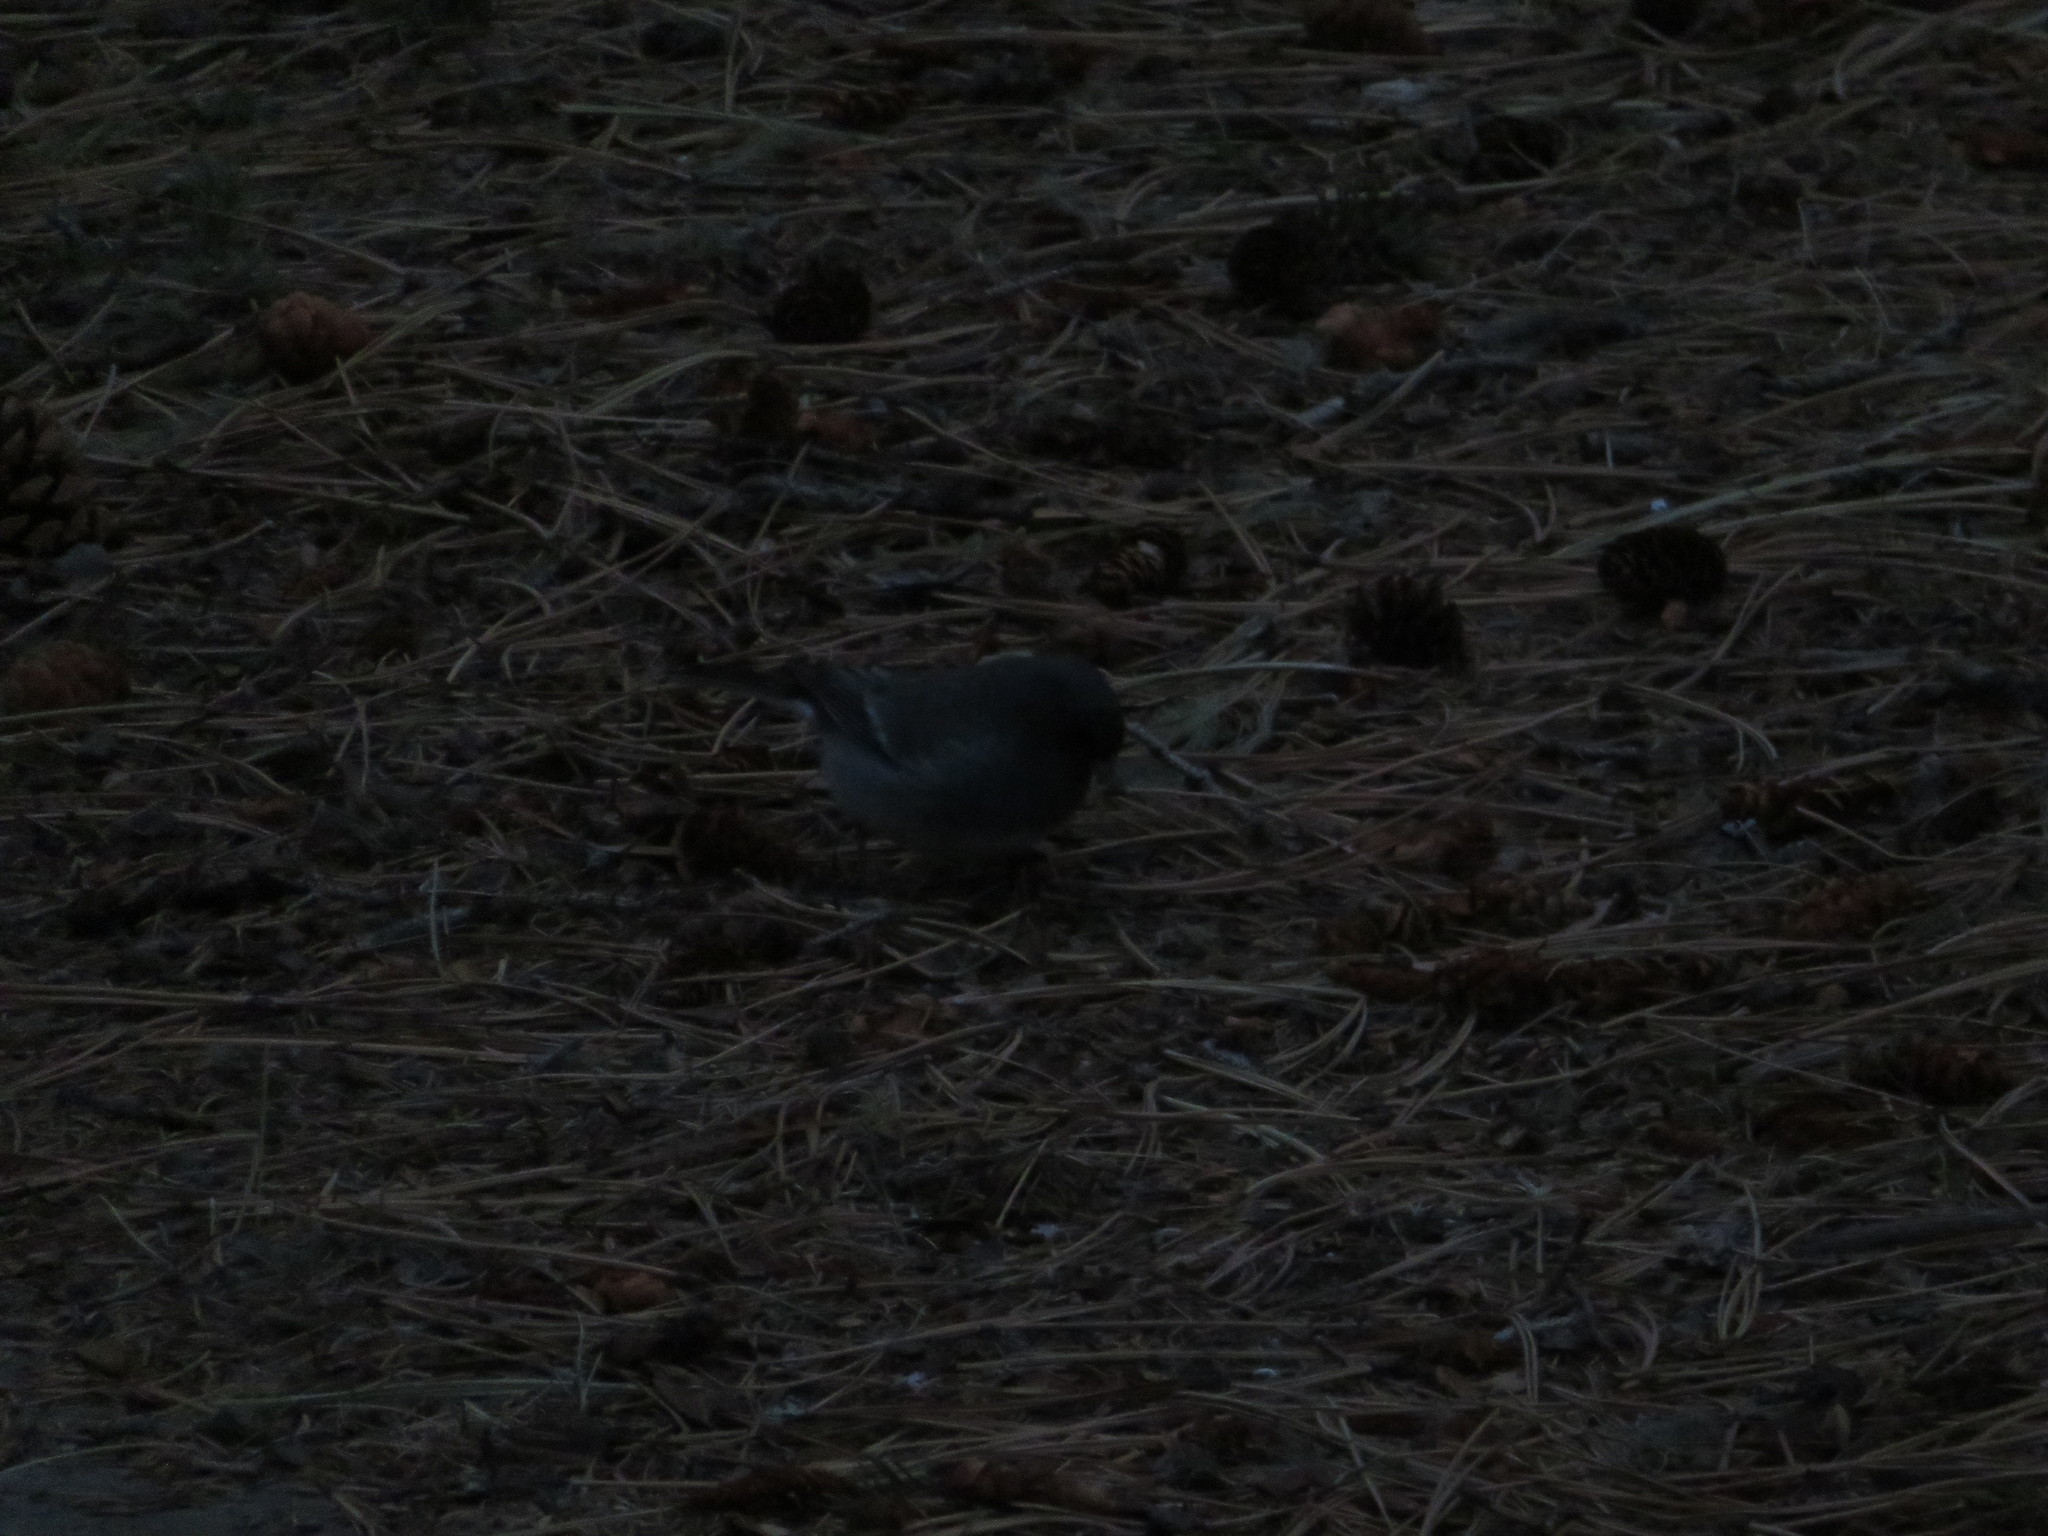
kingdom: Animalia
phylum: Chordata
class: Aves
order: Passeriformes
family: Passerellidae
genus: Junco
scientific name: Junco hyemalis
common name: Dark-eyed junco
